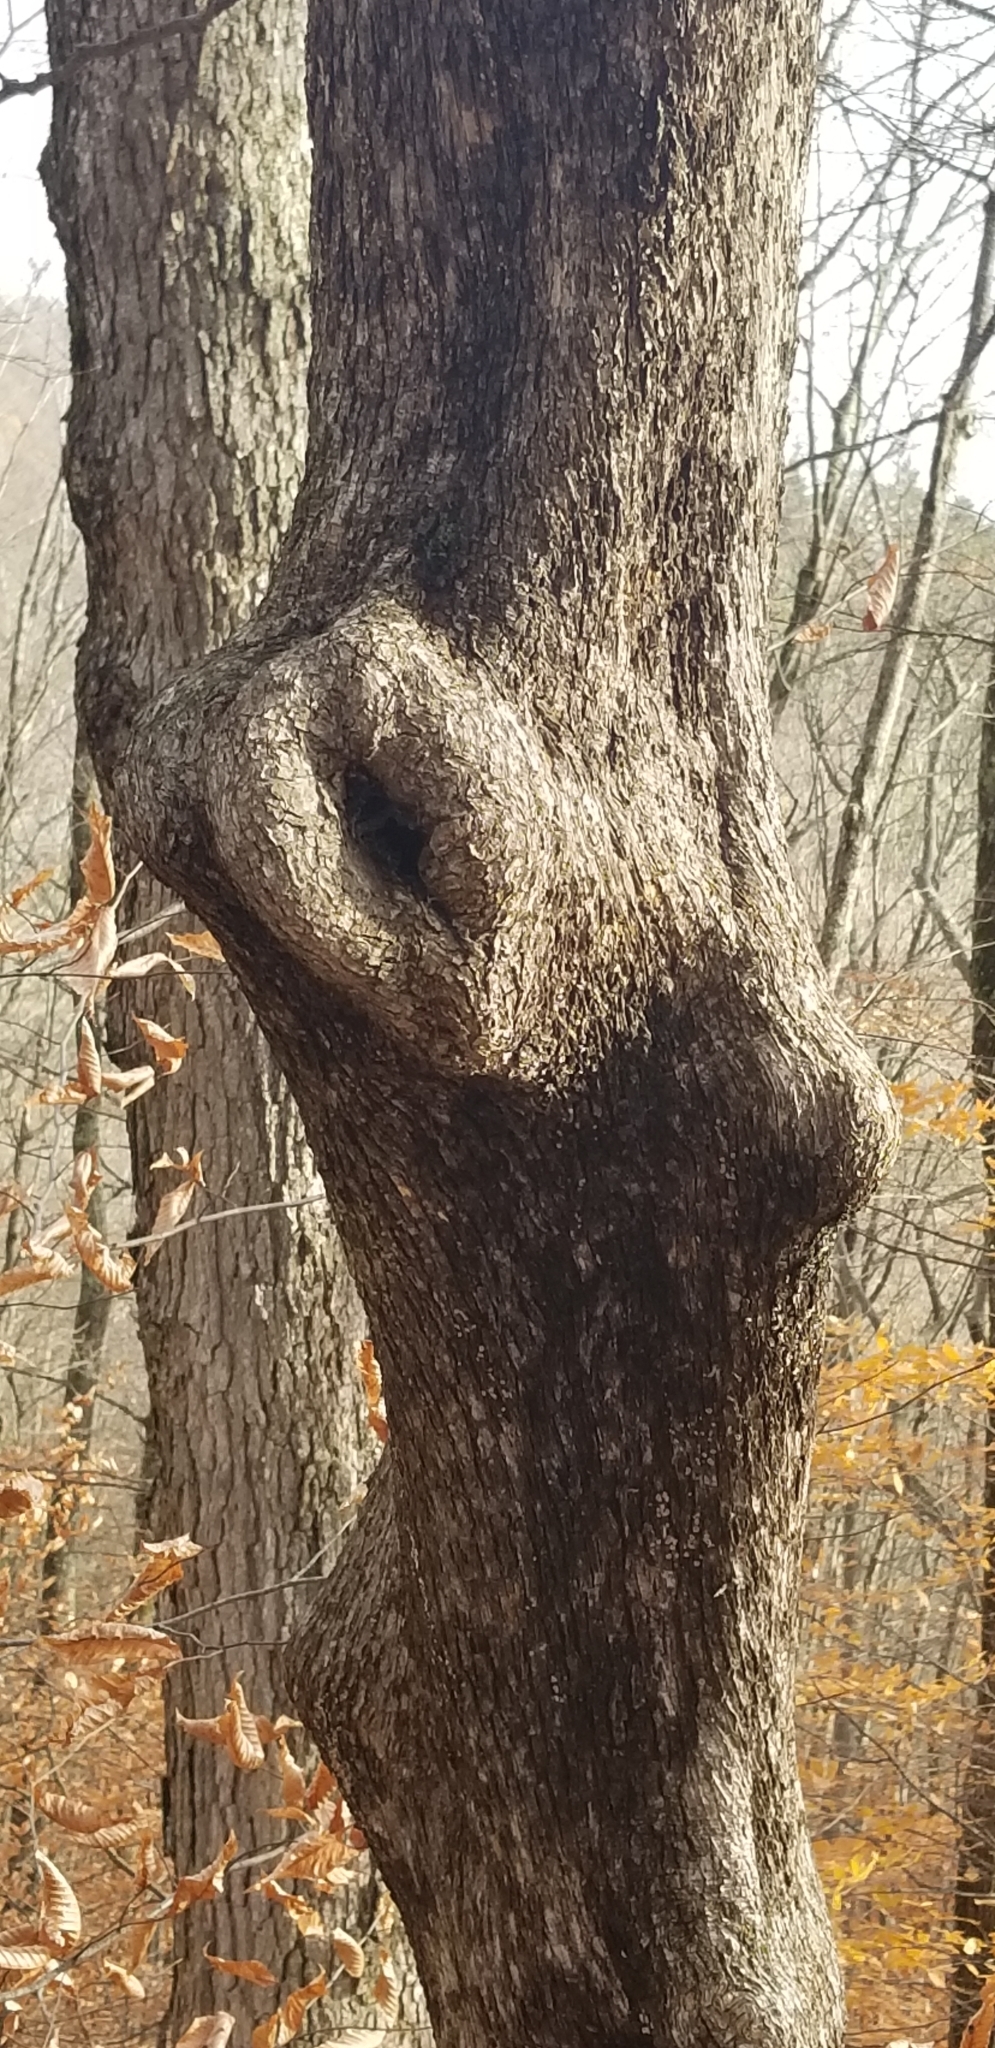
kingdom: Plantae
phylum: Tracheophyta
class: Magnoliopsida
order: Fagales
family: Betulaceae
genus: Ostrya
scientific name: Ostrya virginiana
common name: Ironwood
